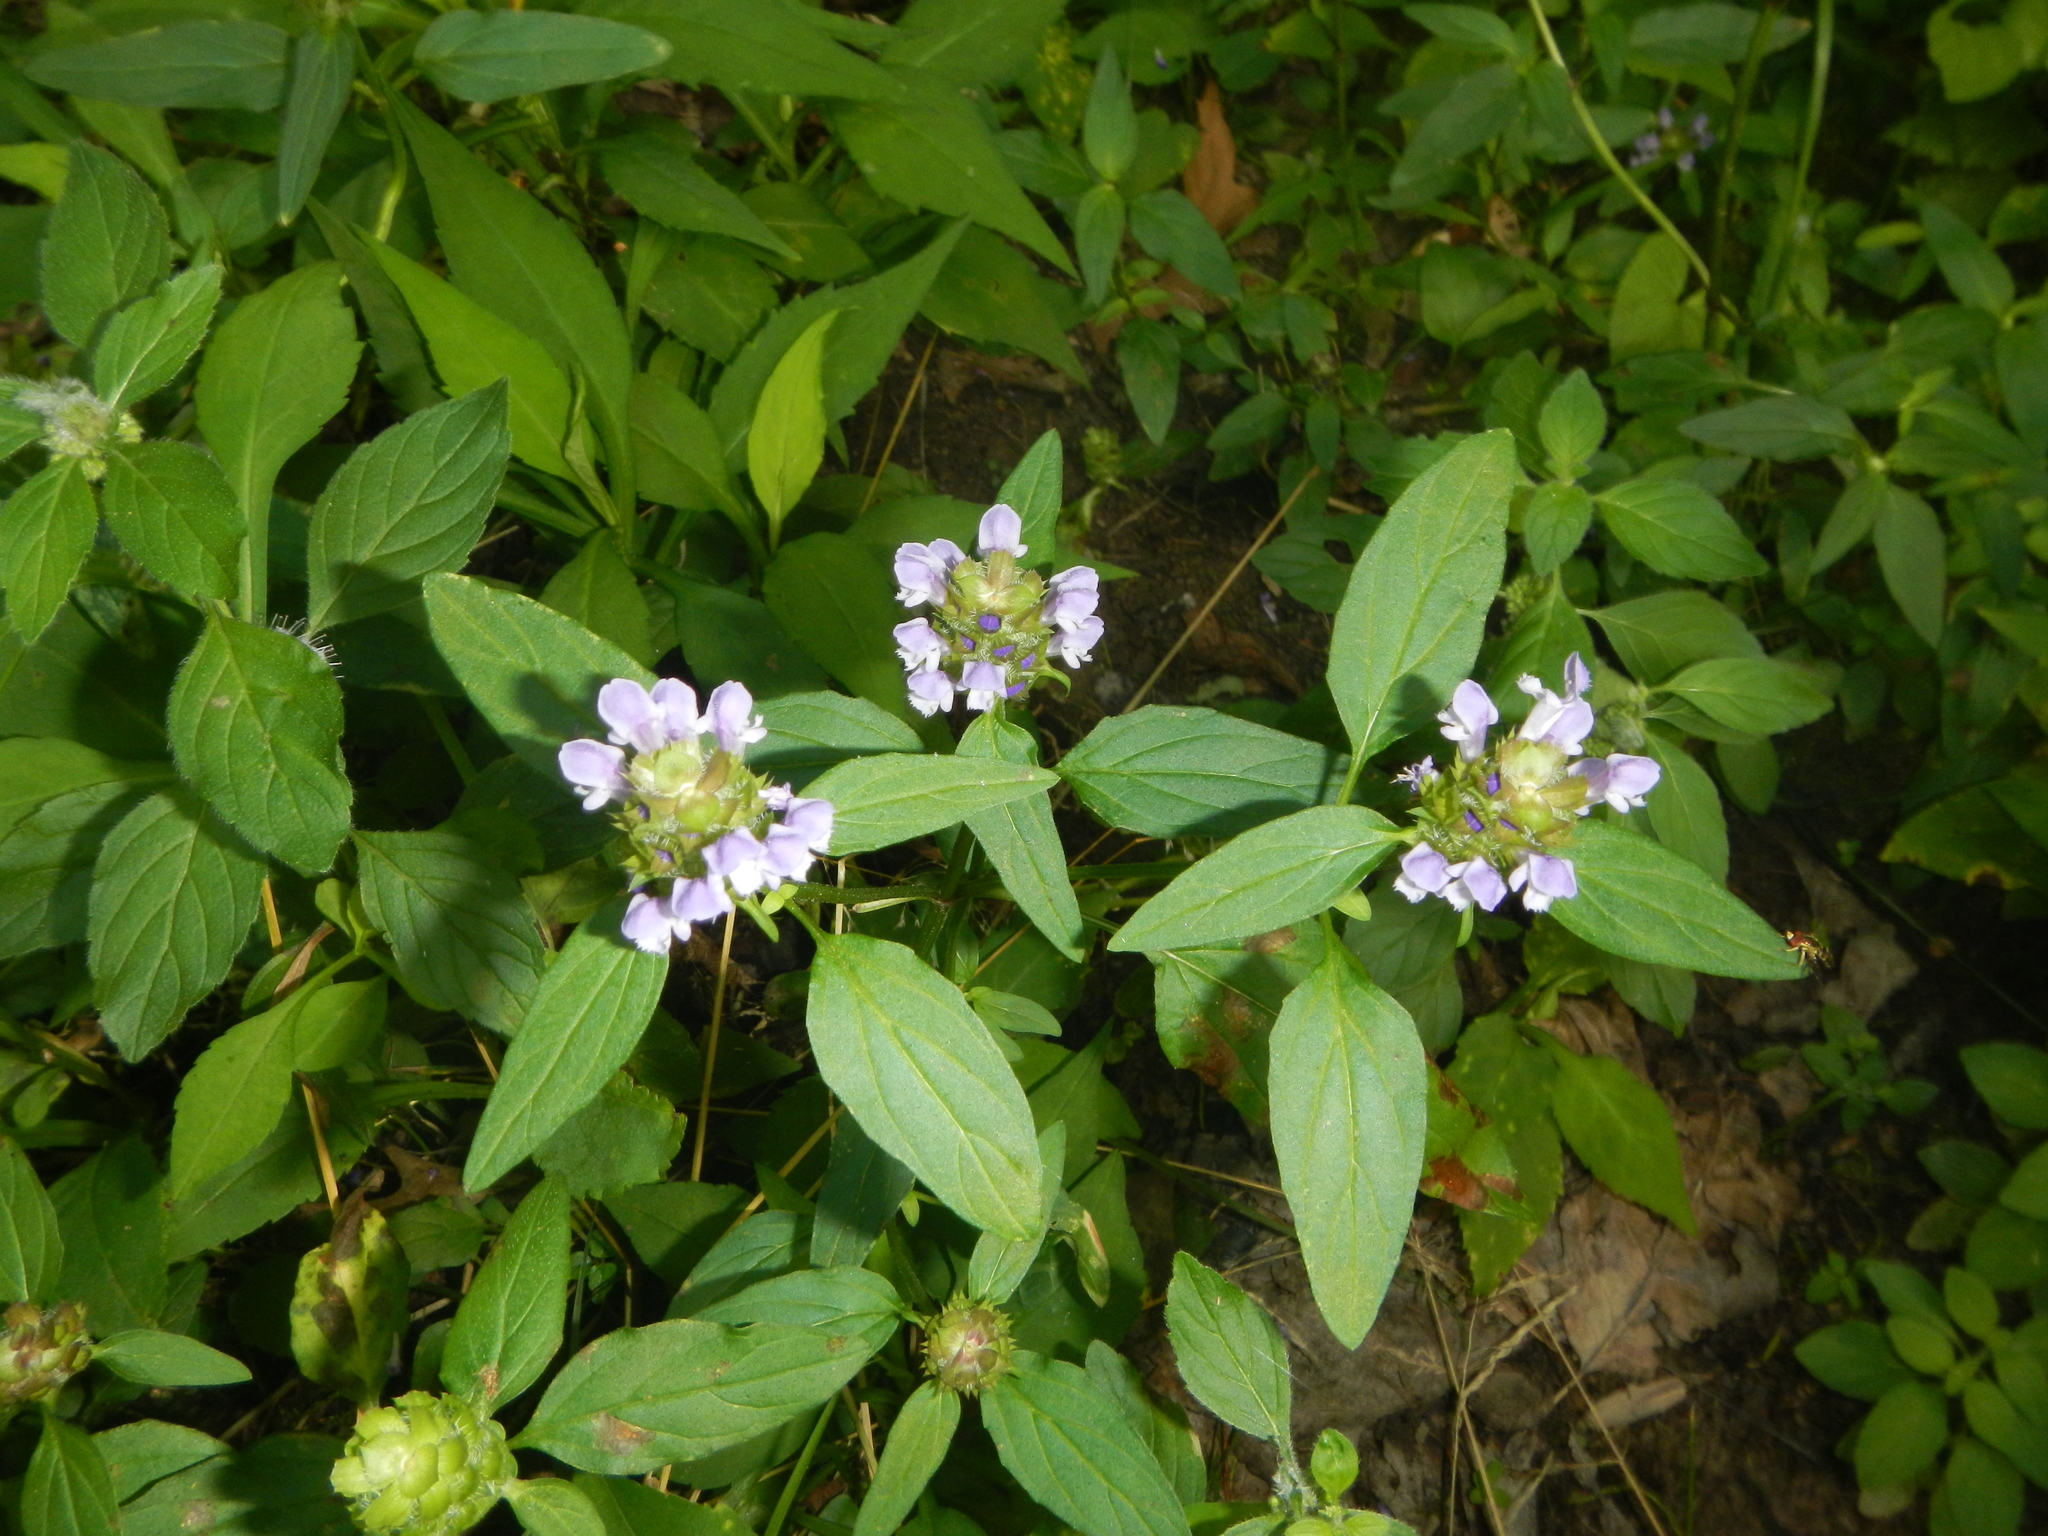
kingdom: Plantae
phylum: Tracheophyta
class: Magnoliopsida
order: Lamiales
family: Lamiaceae
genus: Prunella
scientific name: Prunella vulgaris
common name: Heal-all
